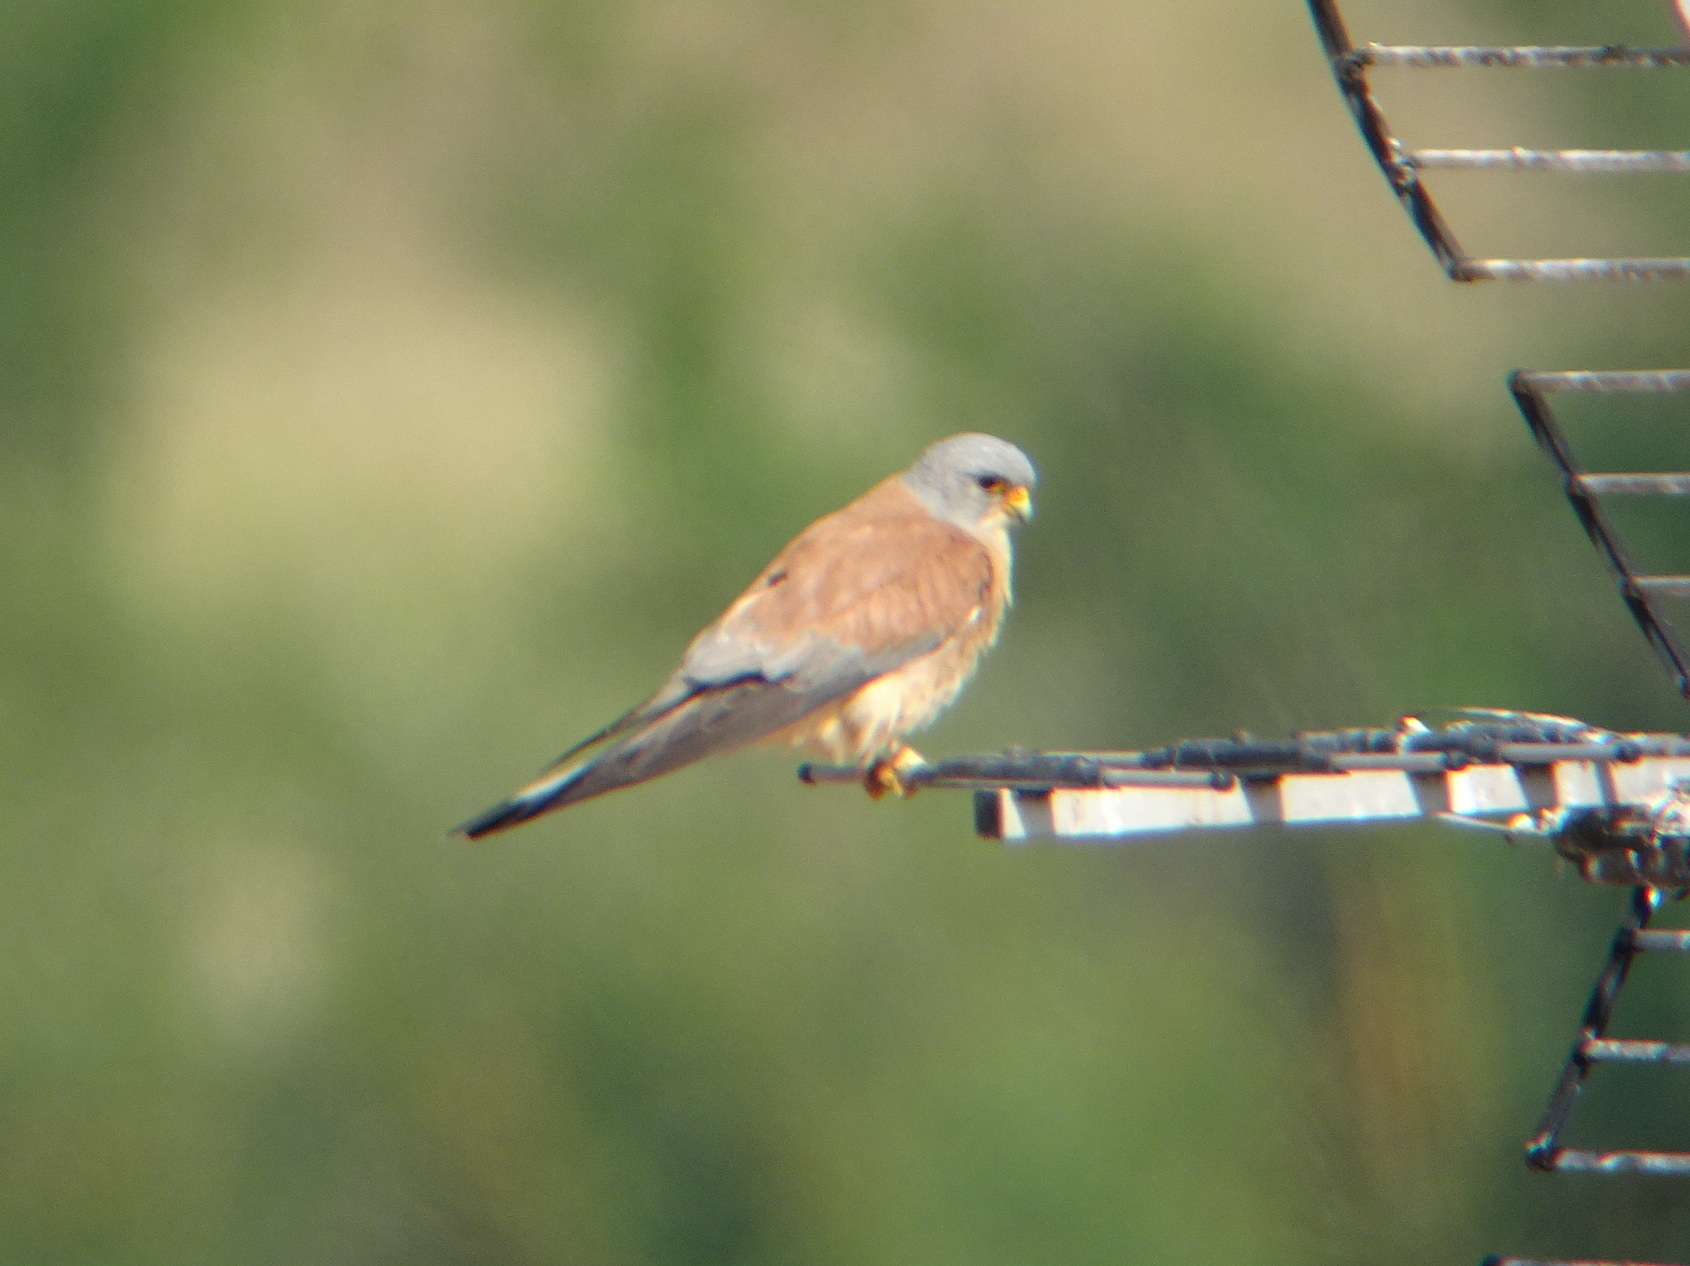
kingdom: Animalia
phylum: Chordata
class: Aves
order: Falconiformes
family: Falconidae
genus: Falco
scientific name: Falco naumanni
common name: Lesser kestrel
